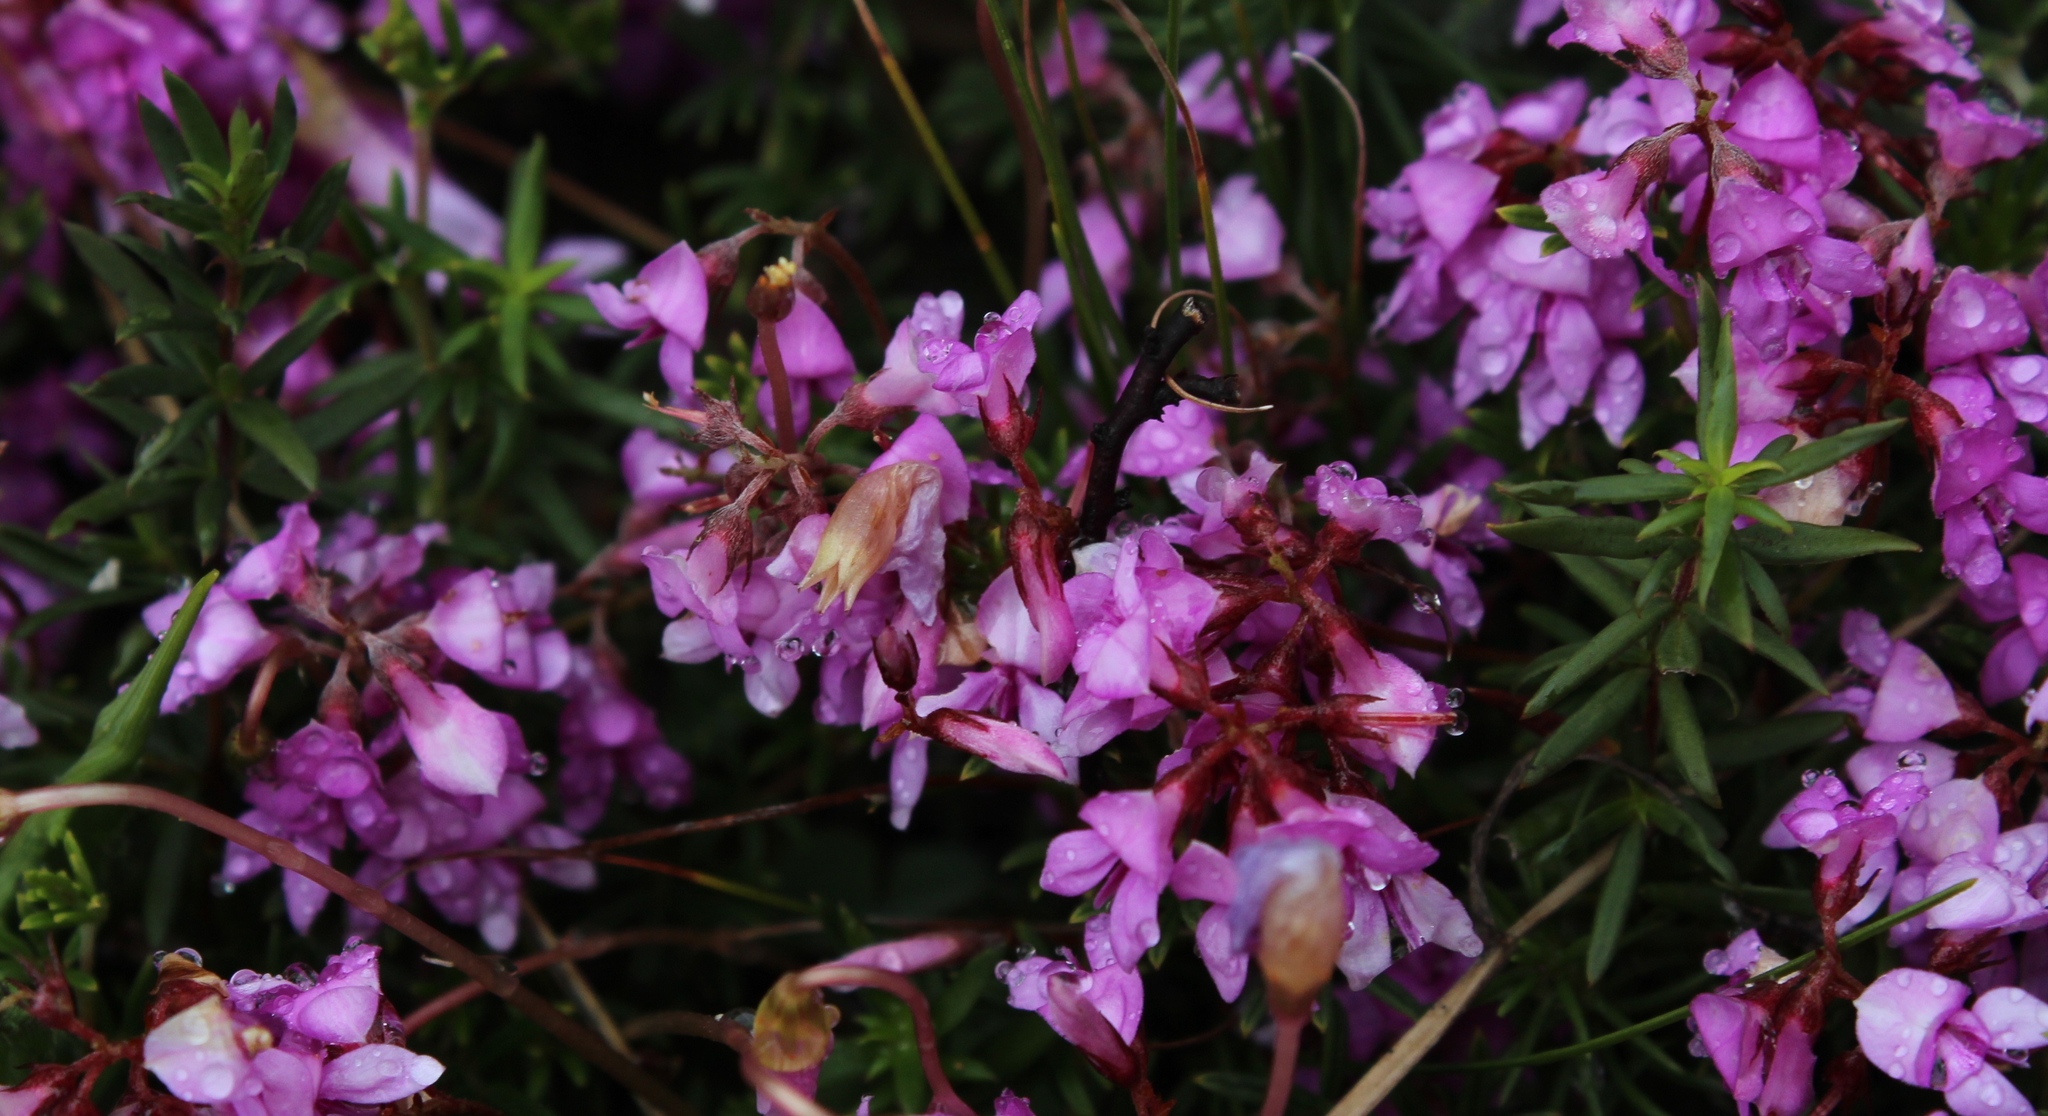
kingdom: Plantae
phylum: Tracheophyta
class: Magnoliopsida
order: Fabales
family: Fabaceae
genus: Indigofera
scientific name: Indigofera
